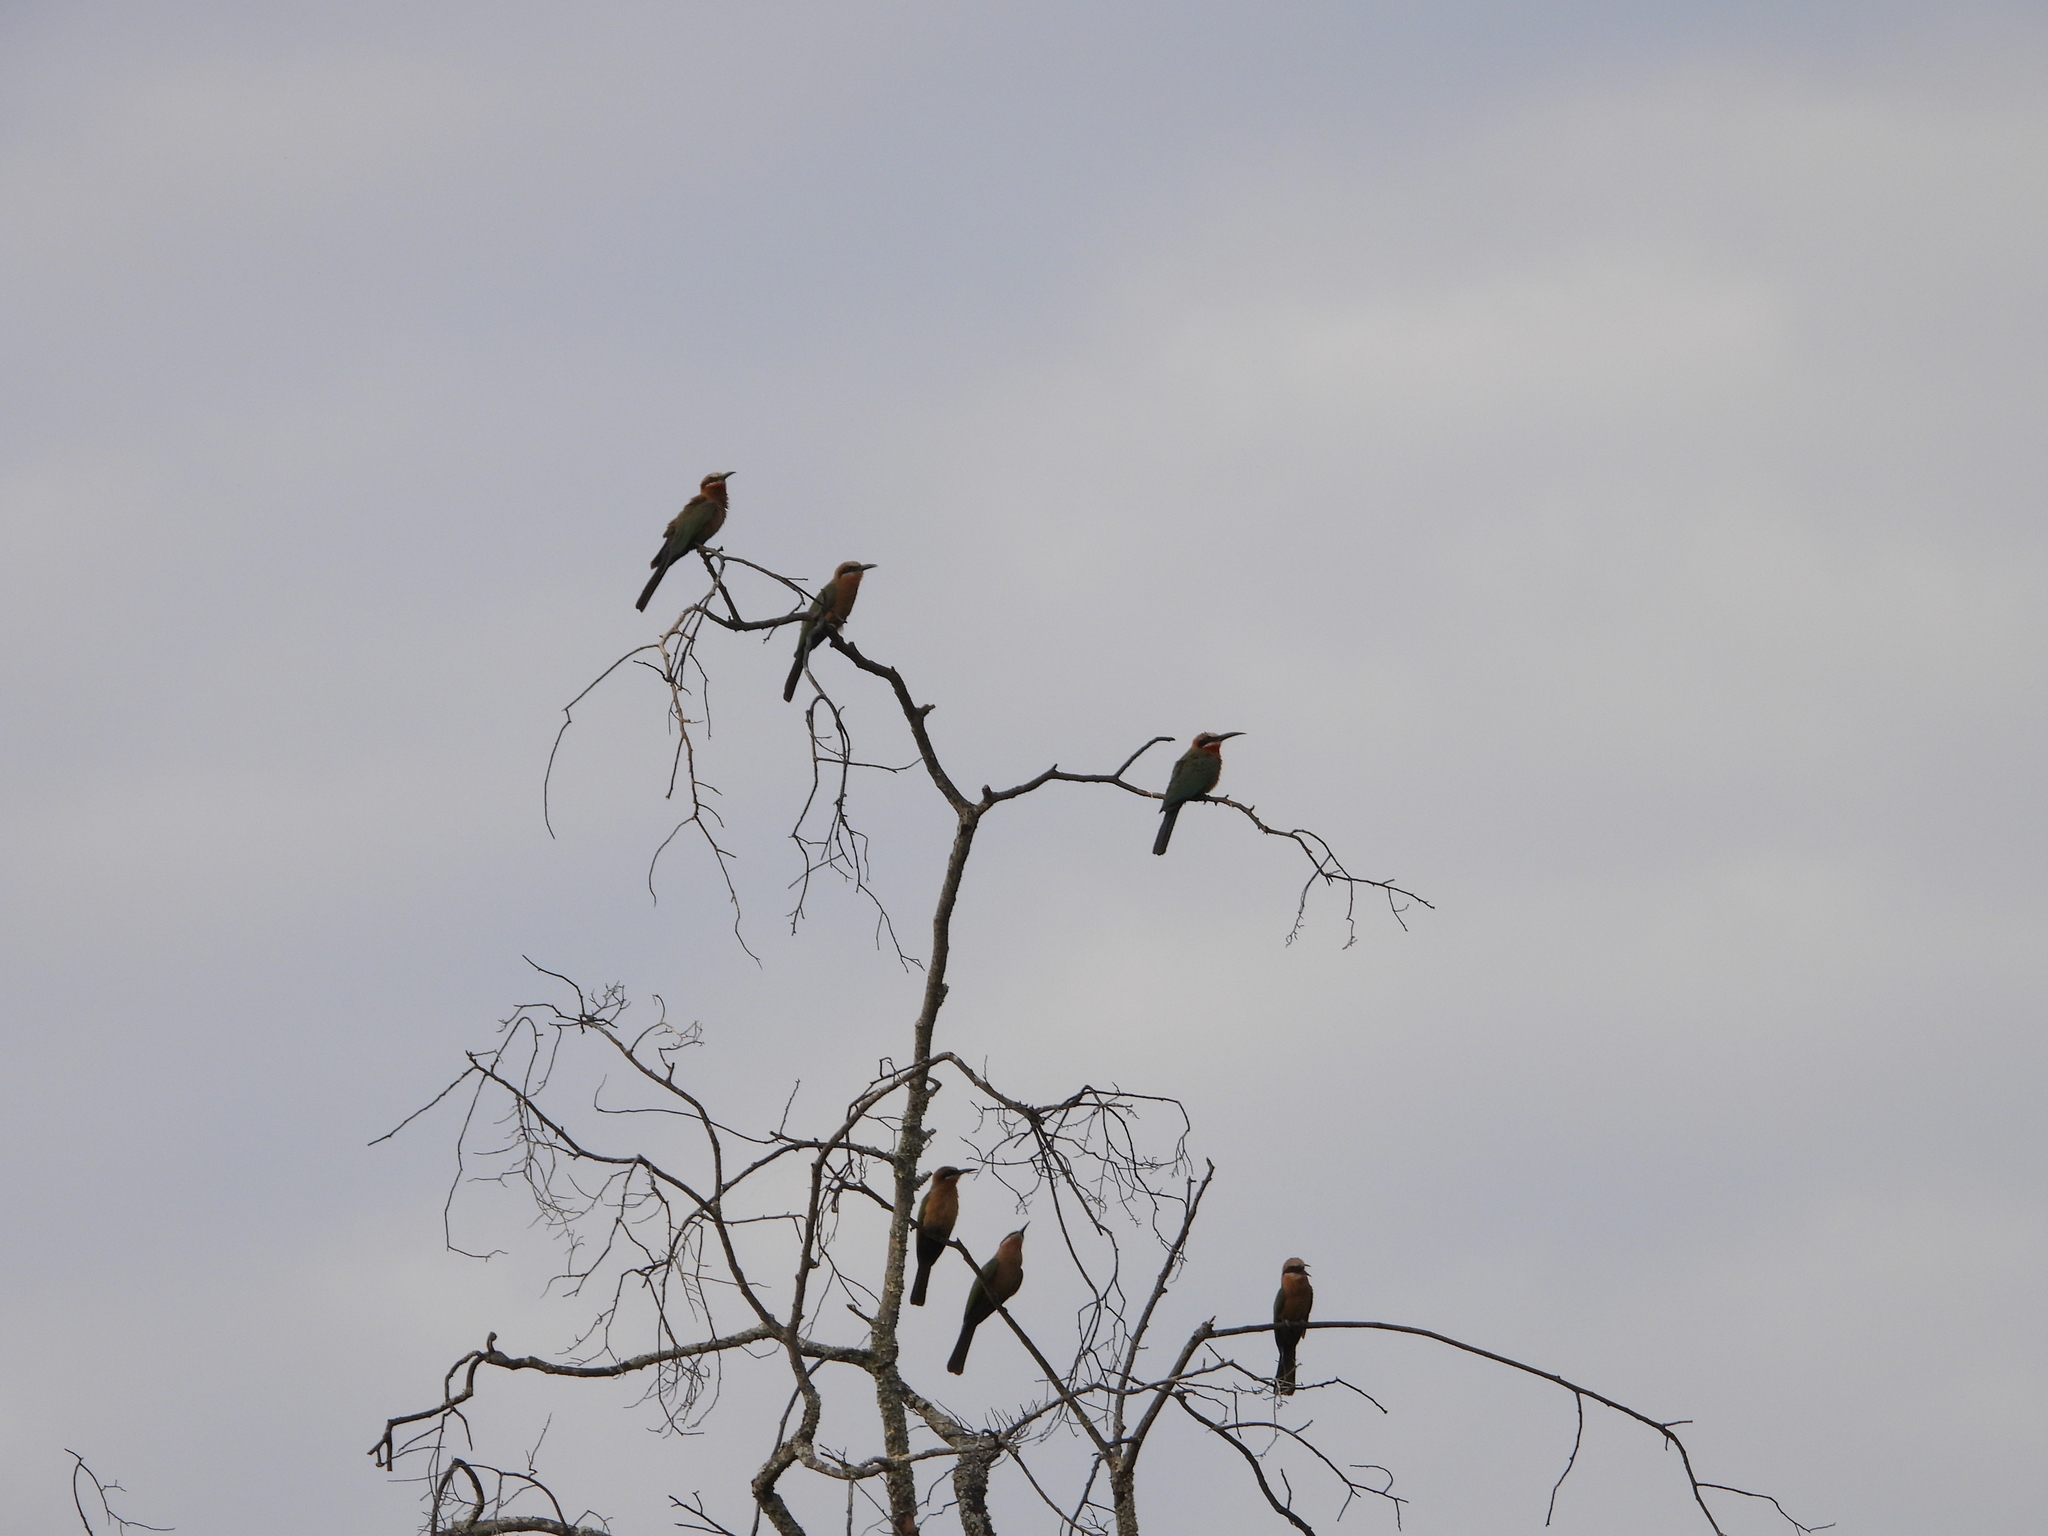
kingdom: Animalia
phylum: Chordata
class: Aves
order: Coraciiformes
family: Meropidae
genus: Merops
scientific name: Merops bullockoides
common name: White-fronted bee-eater
